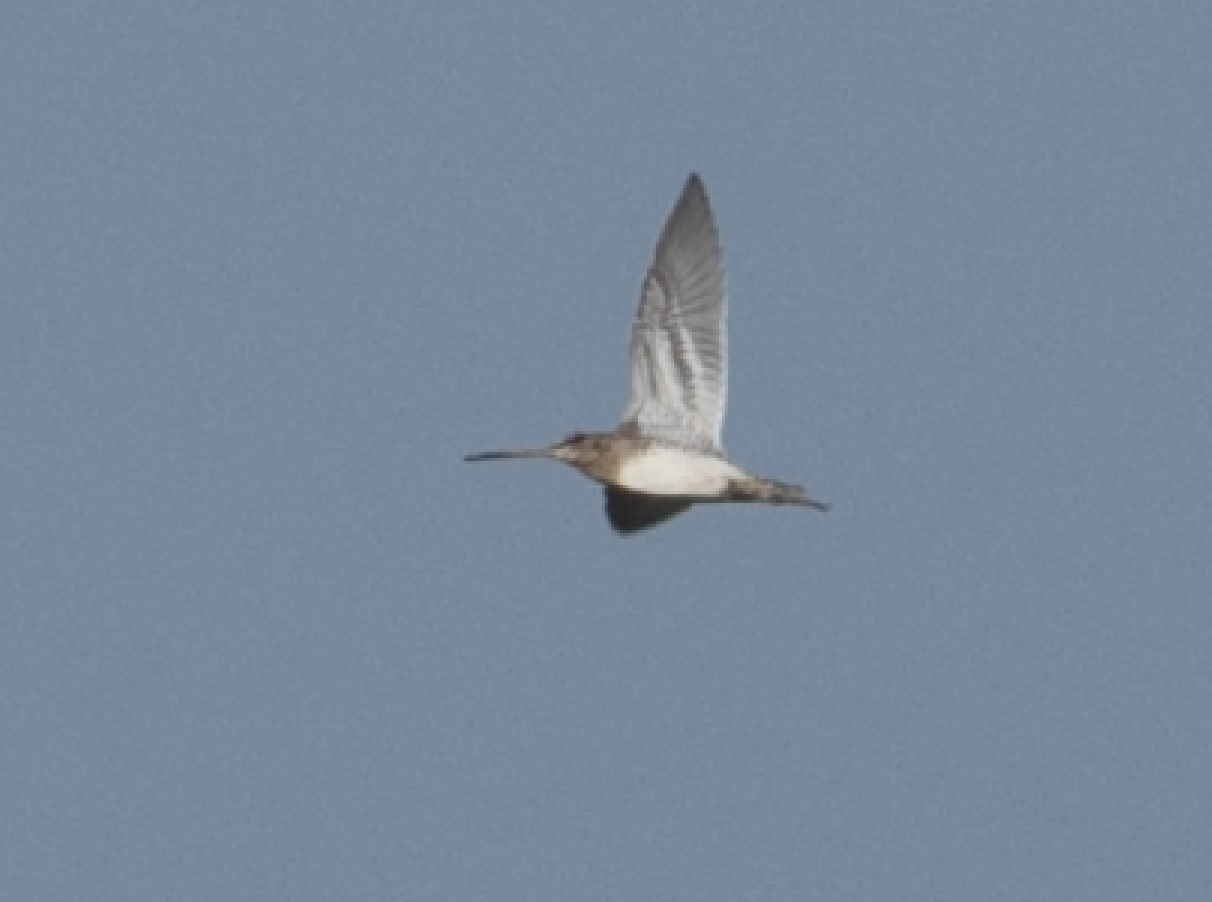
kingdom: Animalia
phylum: Chordata
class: Aves
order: Charadriiformes
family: Scolopacidae
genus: Gallinago
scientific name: Gallinago gallinago
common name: Common snipe
